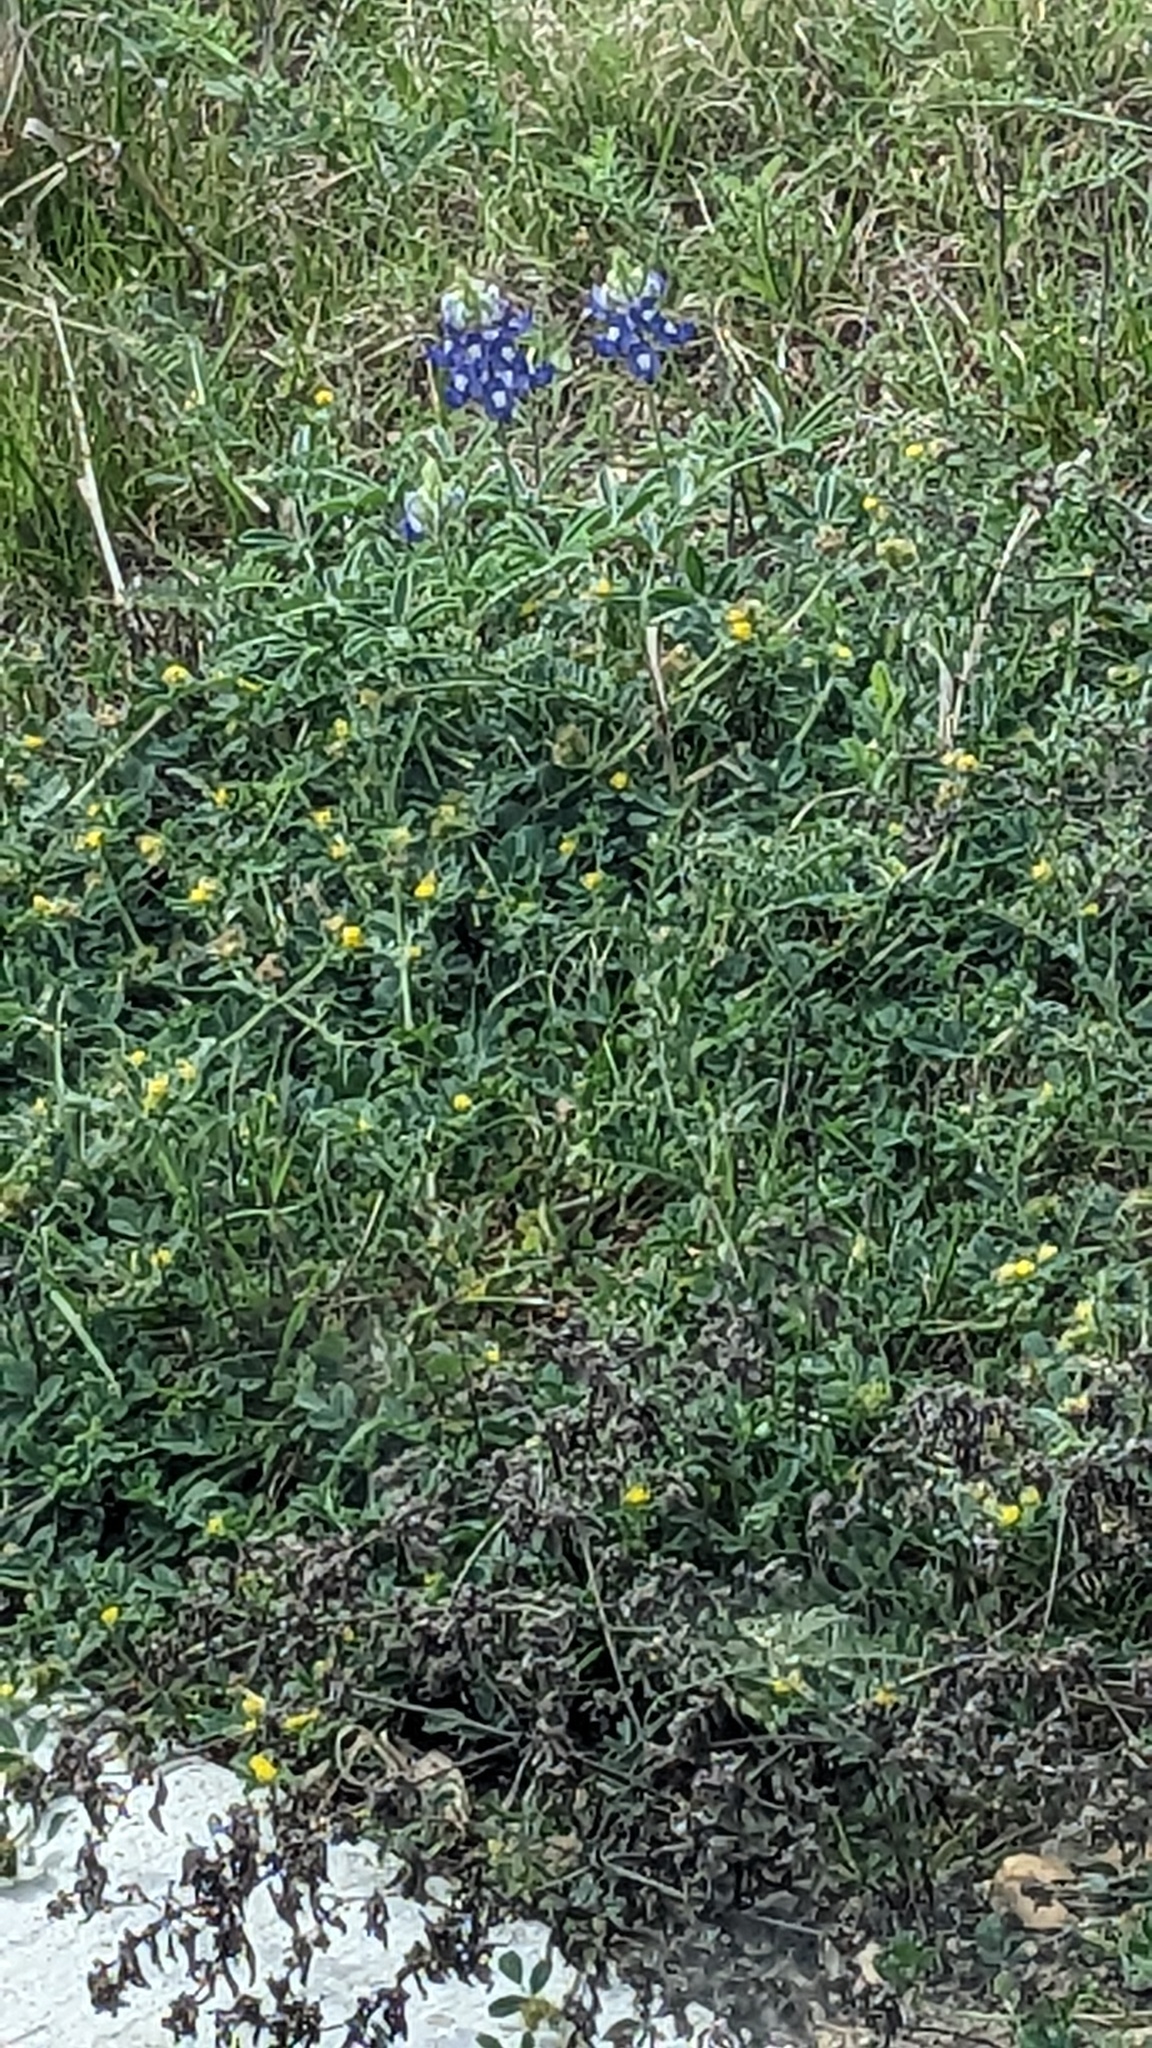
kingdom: Plantae
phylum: Tracheophyta
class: Magnoliopsida
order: Fabales
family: Fabaceae
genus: Lupinus
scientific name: Lupinus texensis
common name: Texas bluebonnet
